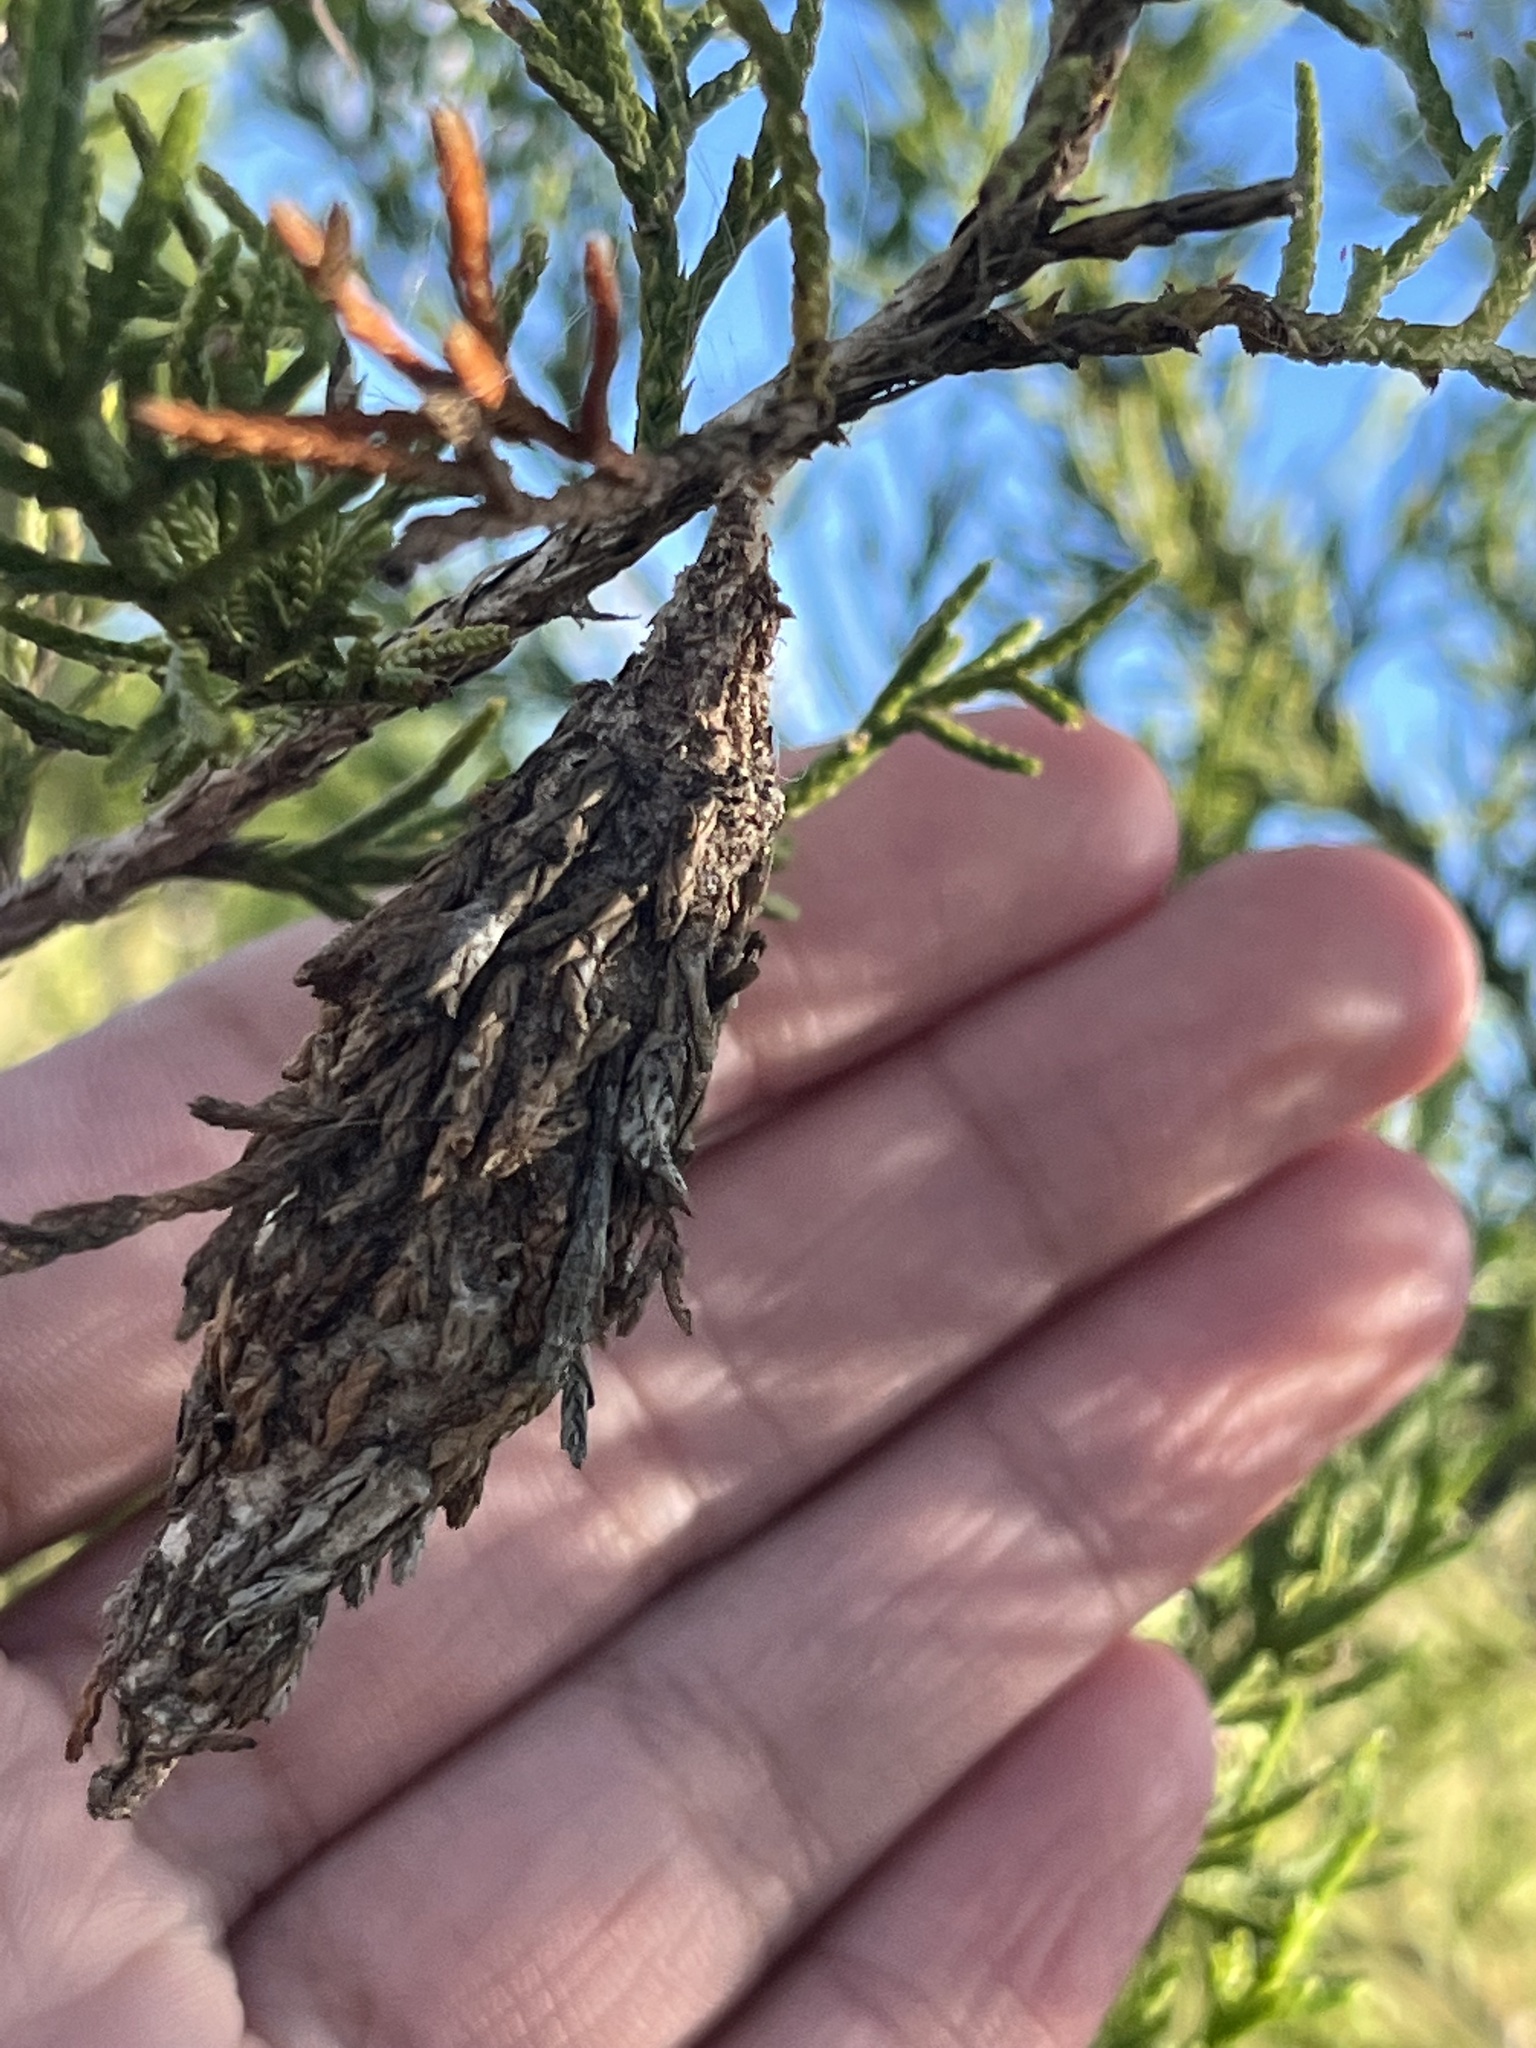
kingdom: Animalia
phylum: Arthropoda
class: Insecta
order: Lepidoptera
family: Psychidae
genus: Thyridopteryx
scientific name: Thyridopteryx ephemeraeformis
